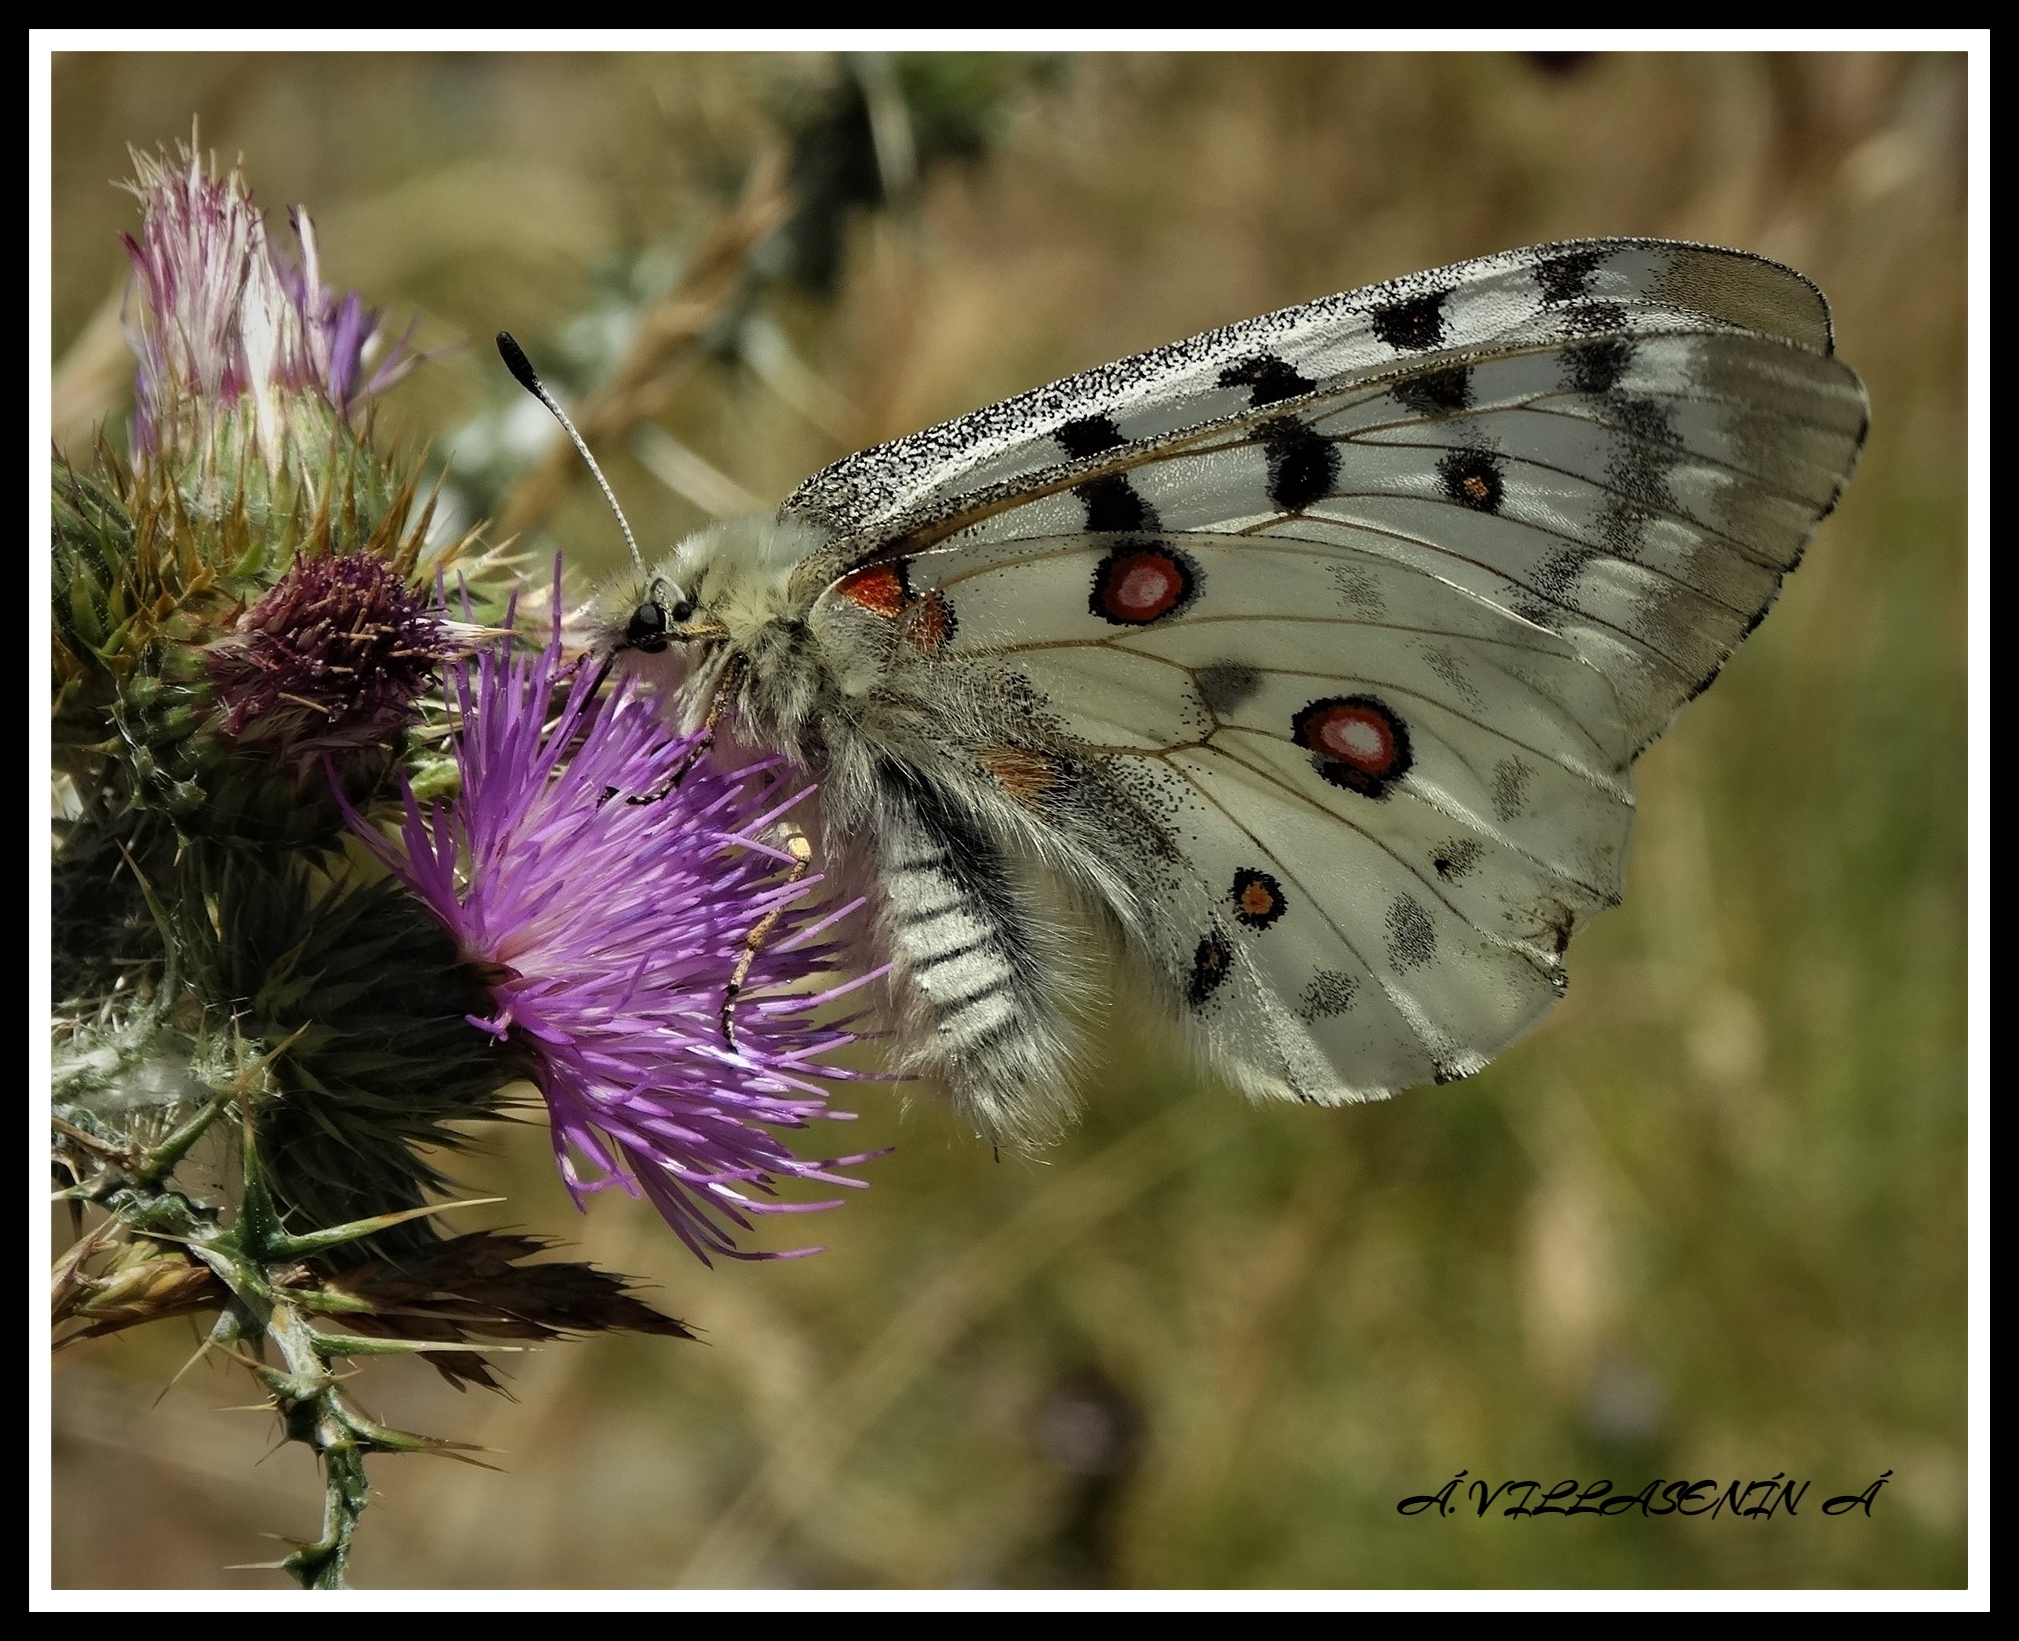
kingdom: Animalia
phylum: Arthropoda
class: Insecta
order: Lepidoptera
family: Papilionidae
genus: Parnassius
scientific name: Parnassius apollo
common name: Apollo
